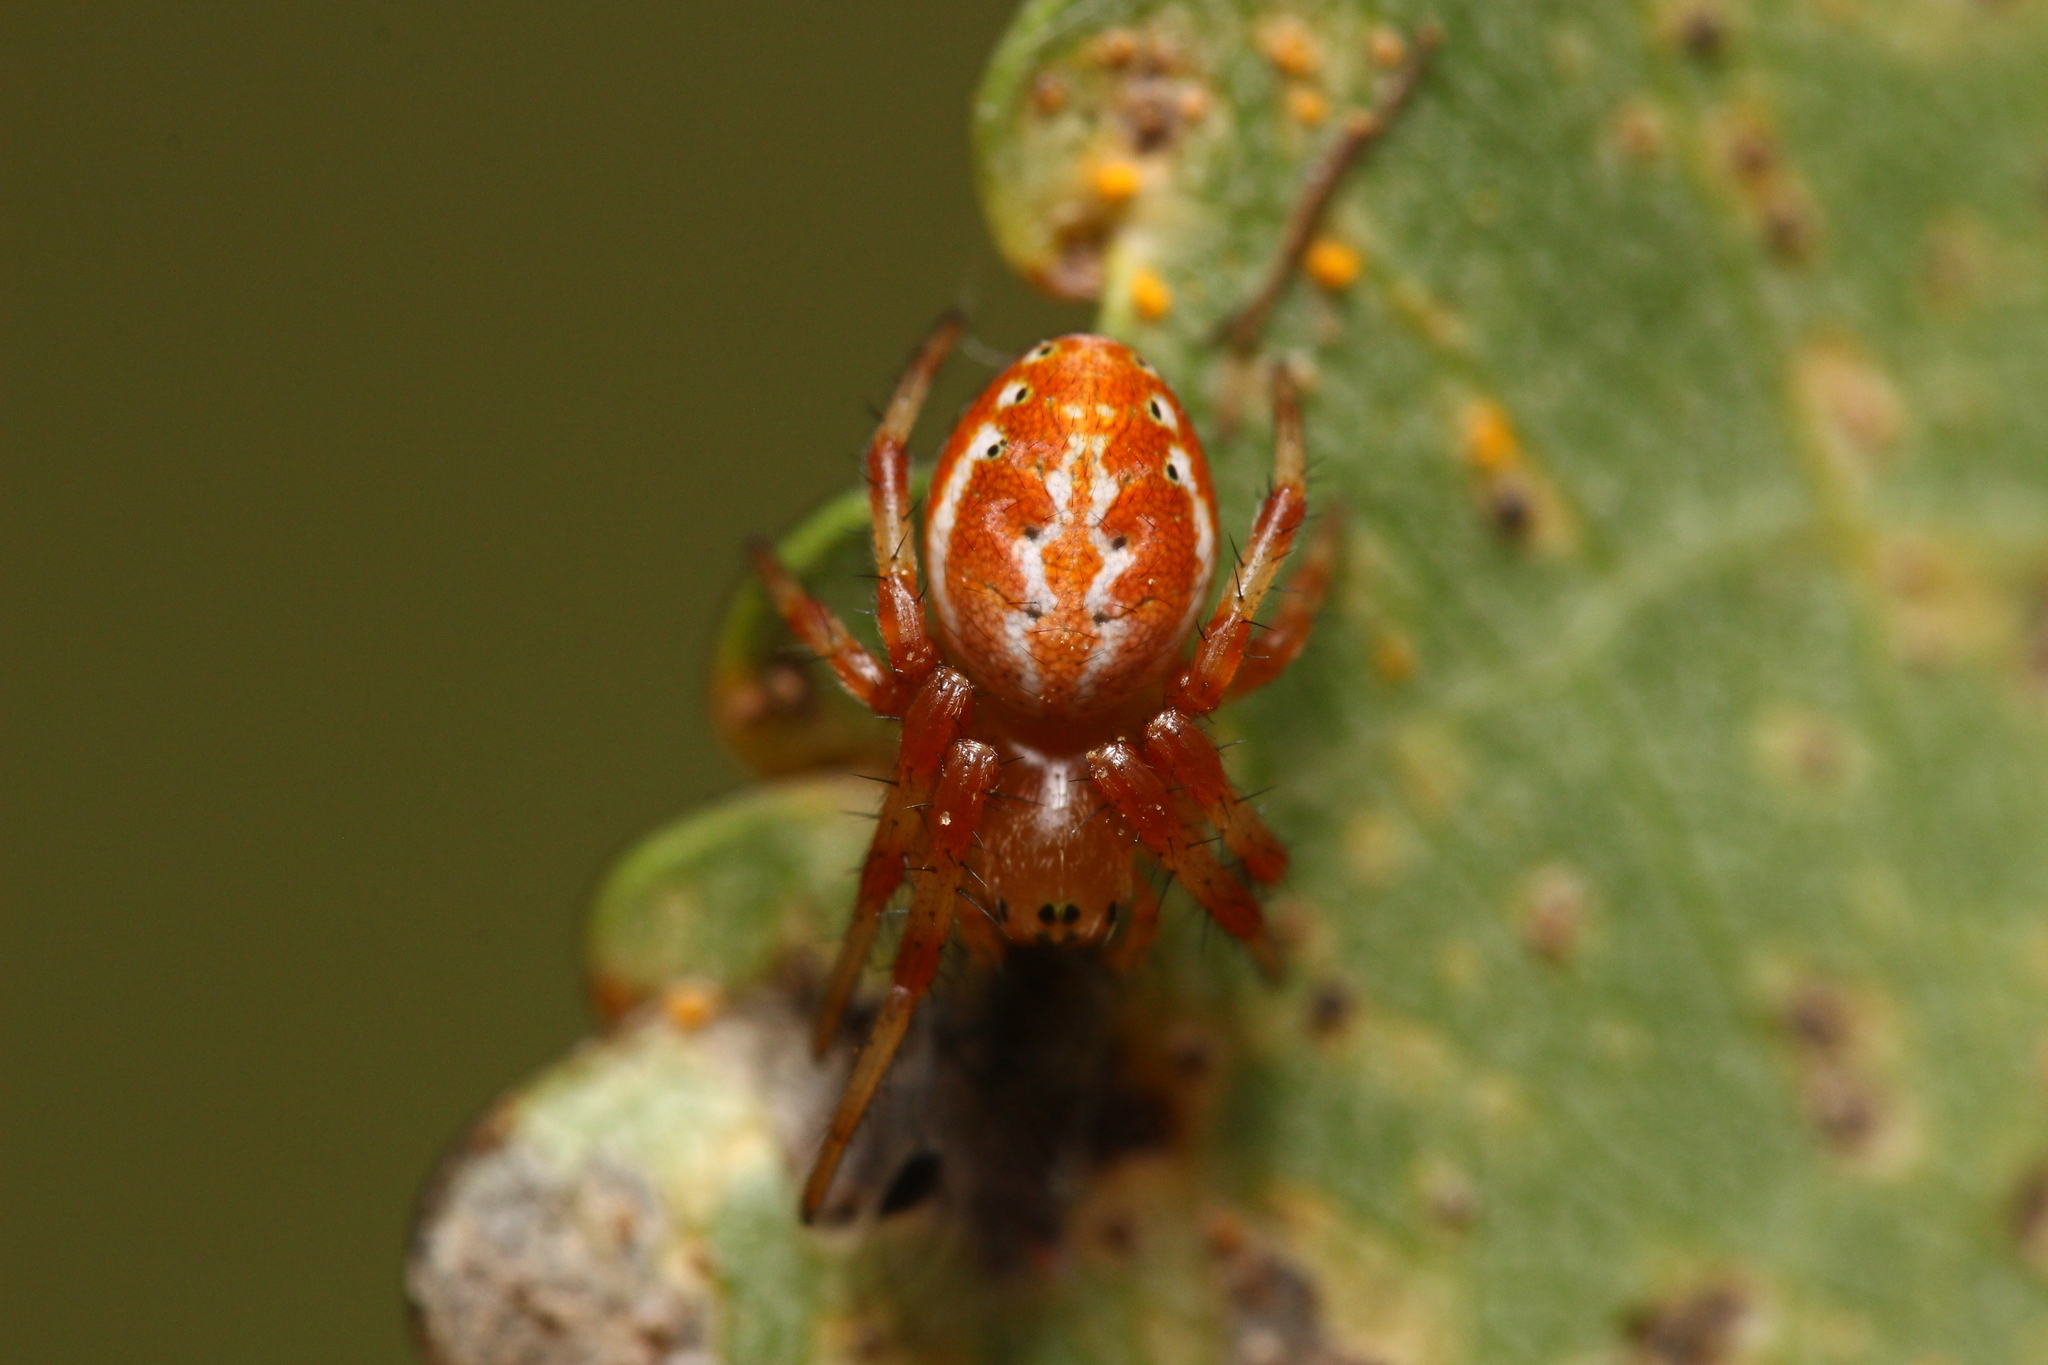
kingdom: Animalia
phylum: Arthropoda
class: Arachnida
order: Araneae
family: Araneidae
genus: Araniella
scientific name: Araniella displicata
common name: Sixspotted orb weaver
